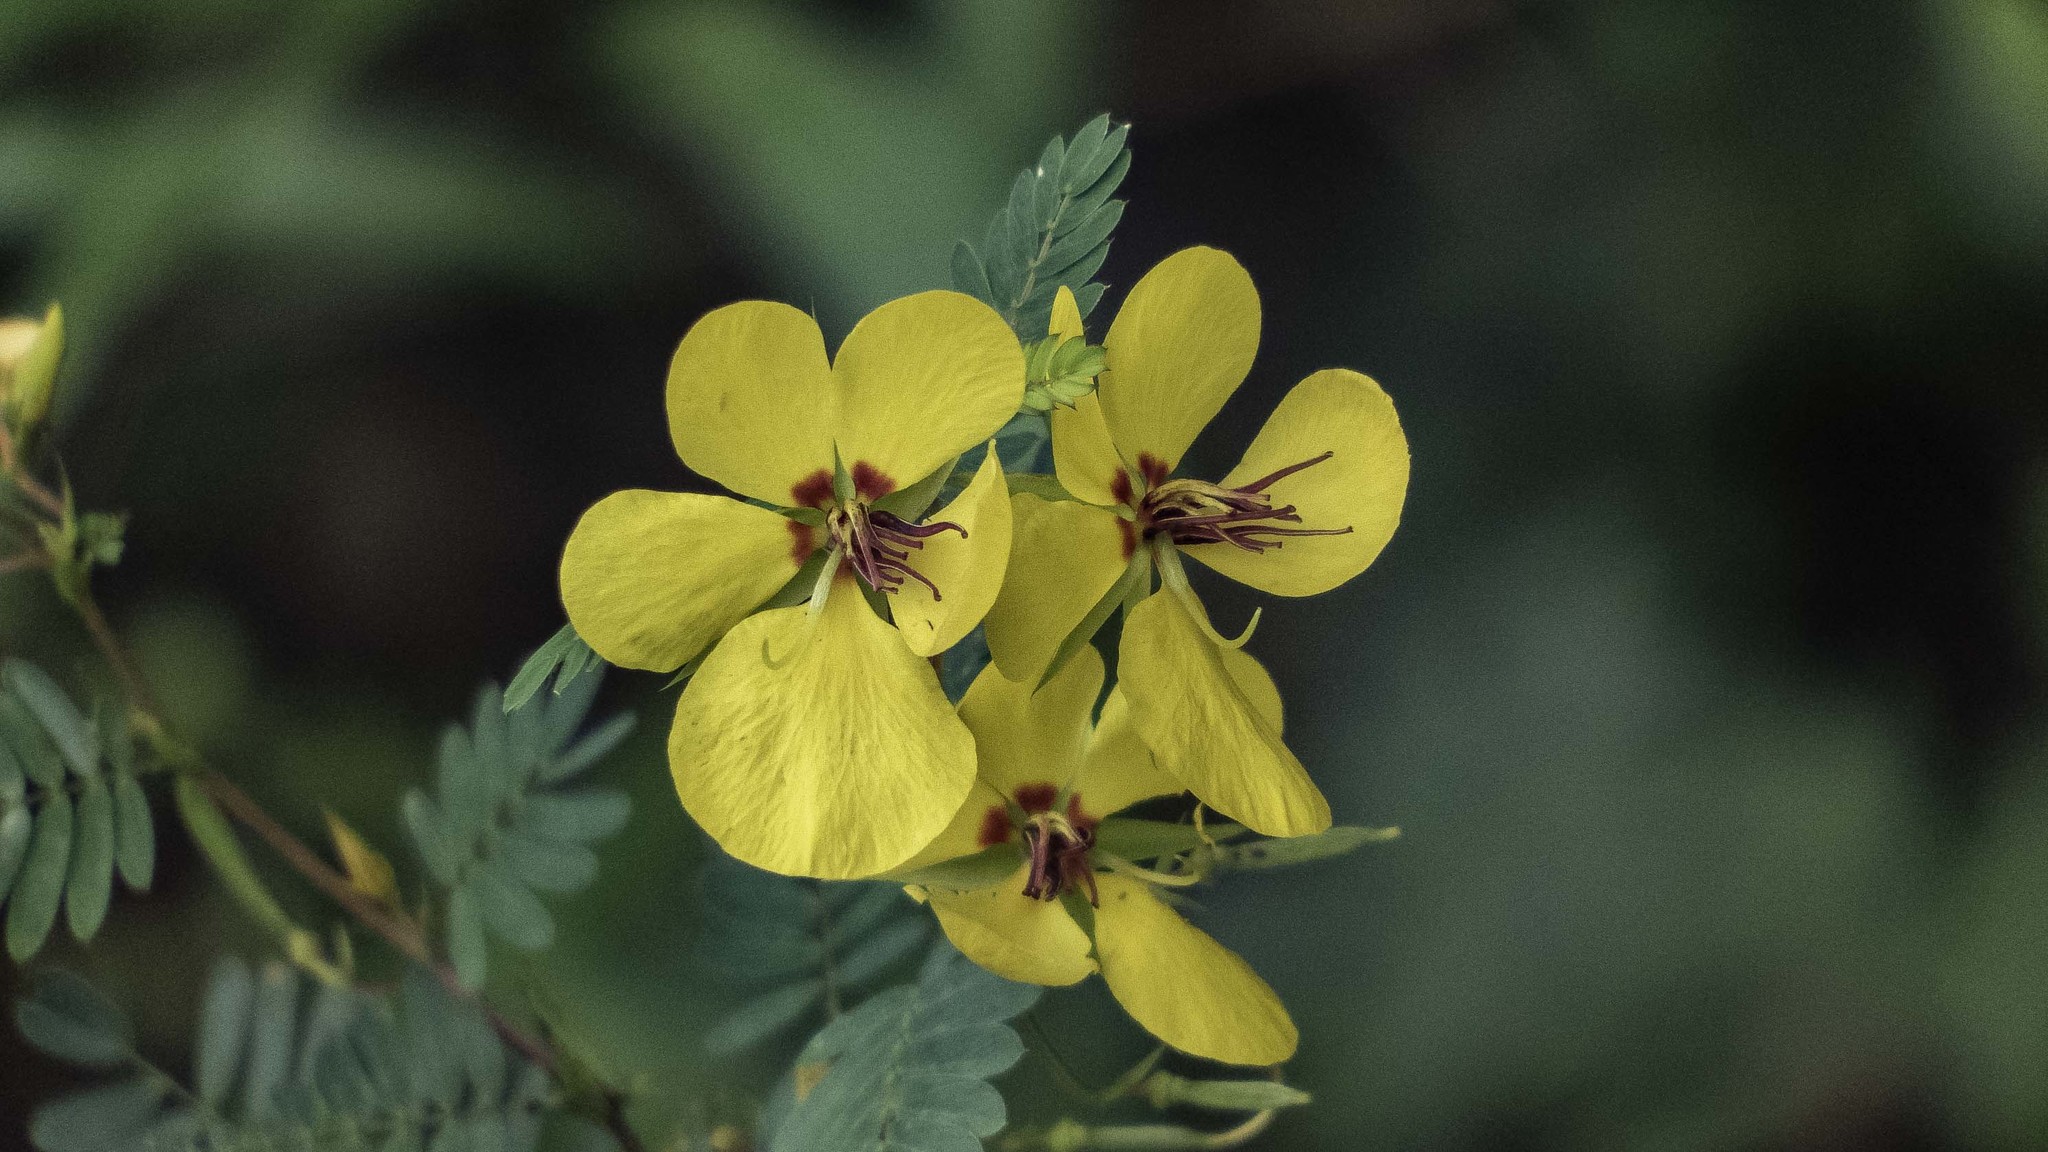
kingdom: Plantae
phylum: Tracheophyta
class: Magnoliopsida
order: Fabales
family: Fabaceae
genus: Chamaecrista
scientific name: Chamaecrista fasciculata
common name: Golden cassia
